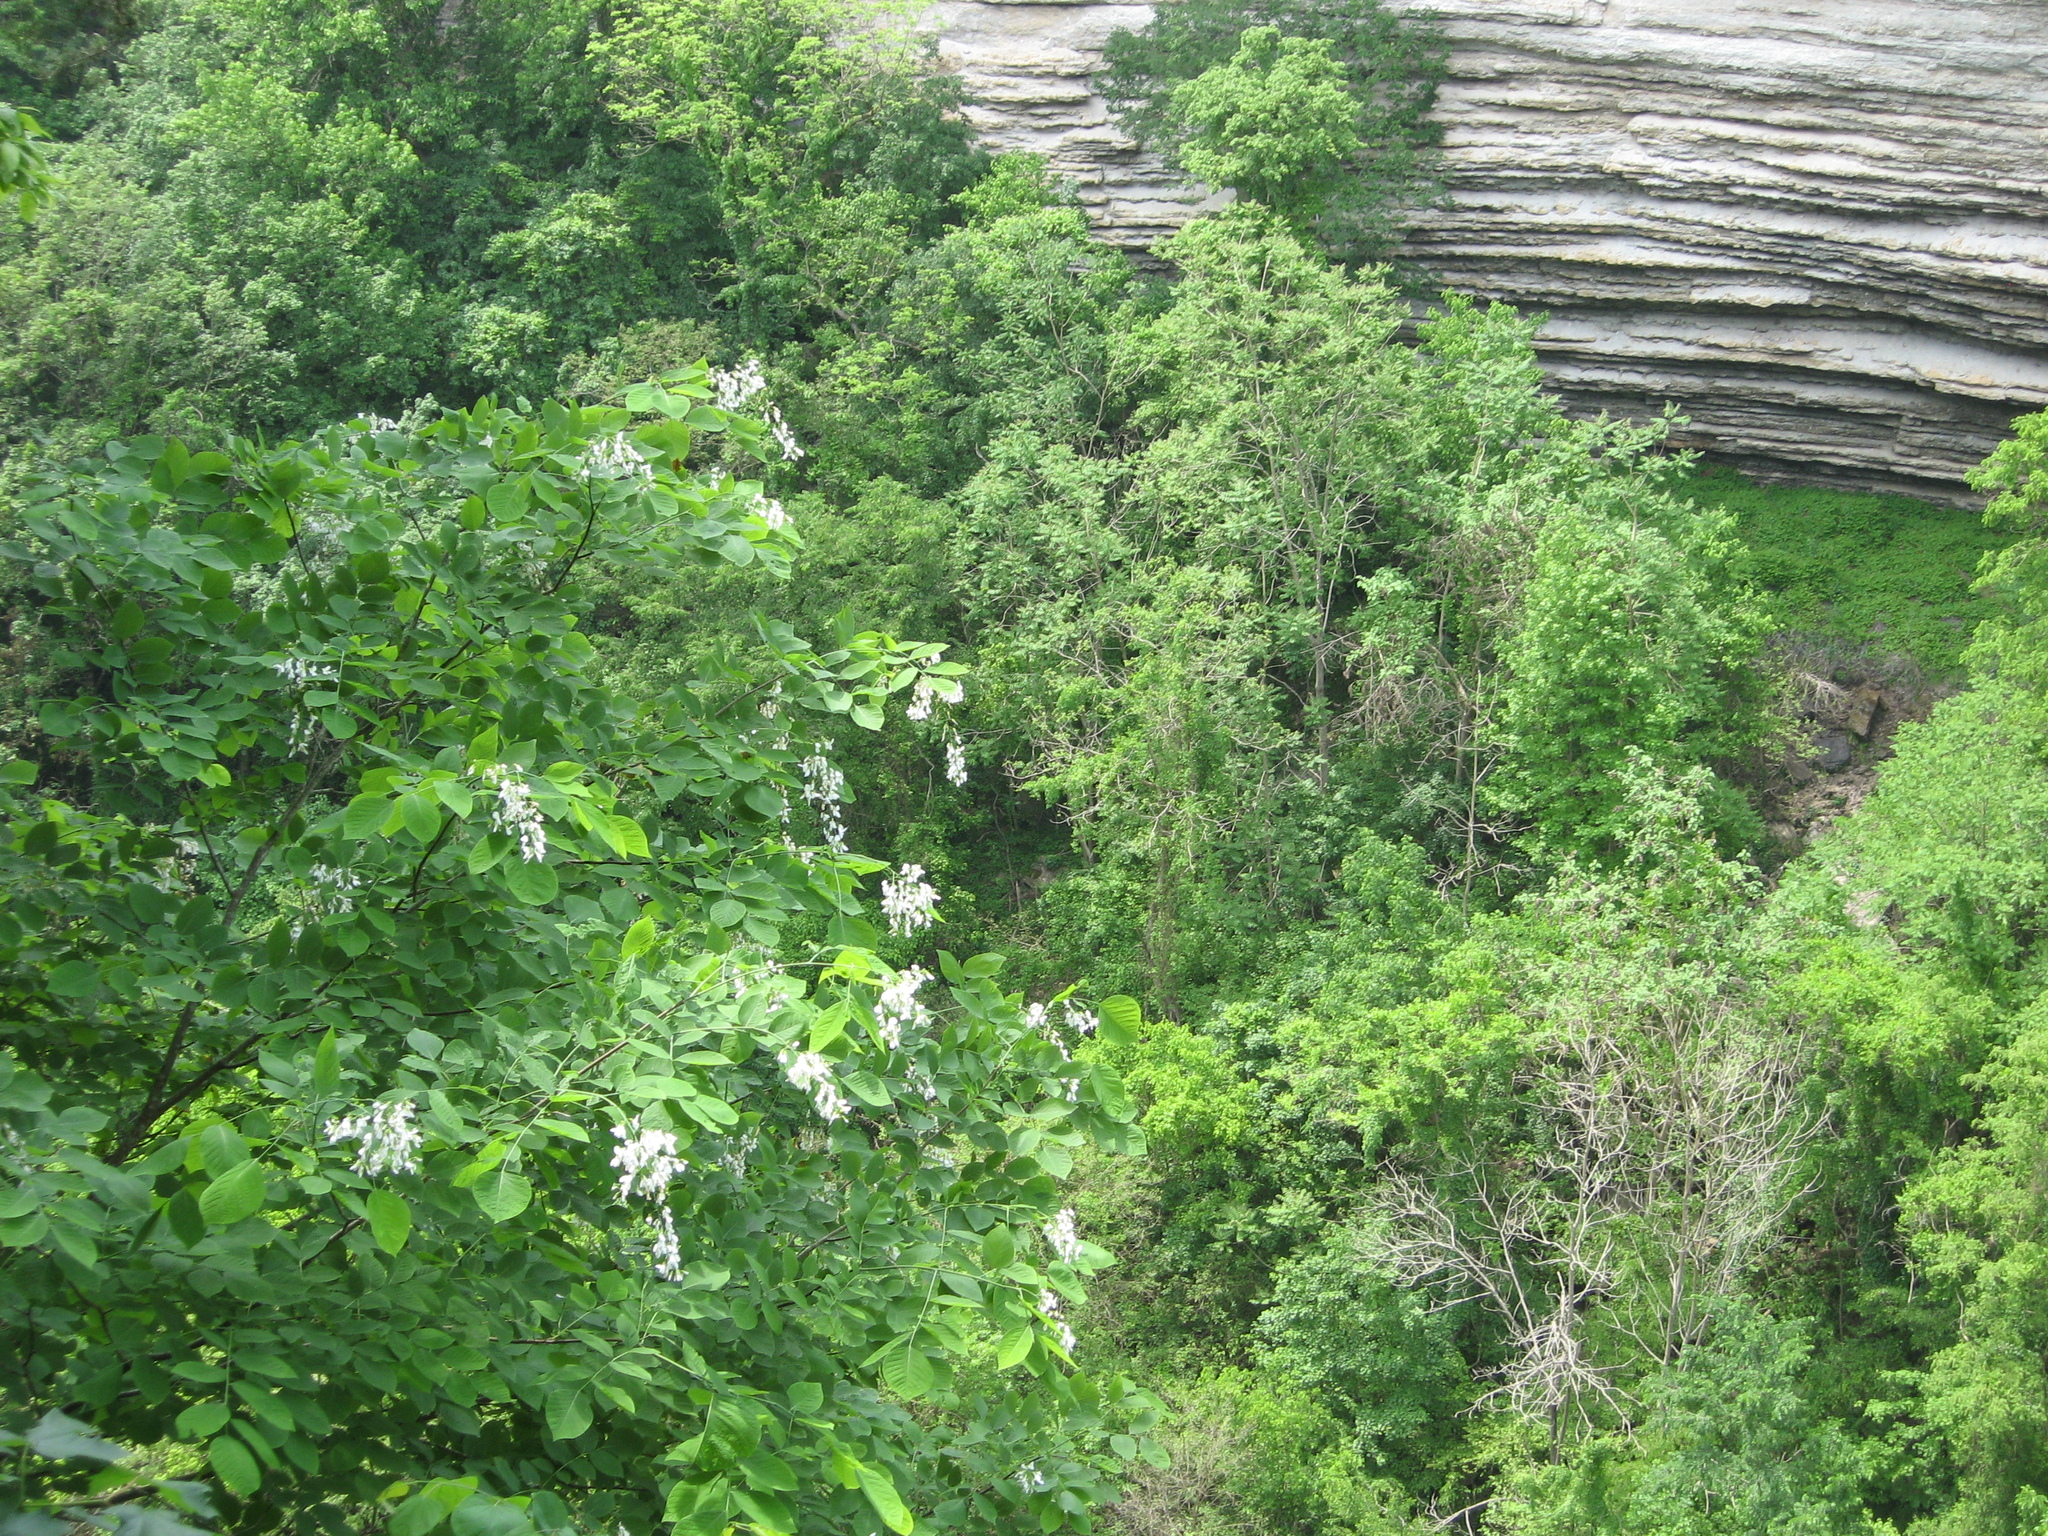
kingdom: Plantae
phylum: Tracheophyta
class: Magnoliopsida
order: Fabales
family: Fabaceae
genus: Cladrastis
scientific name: Cladrastis kentukea
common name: Kentucky yellow-wood
